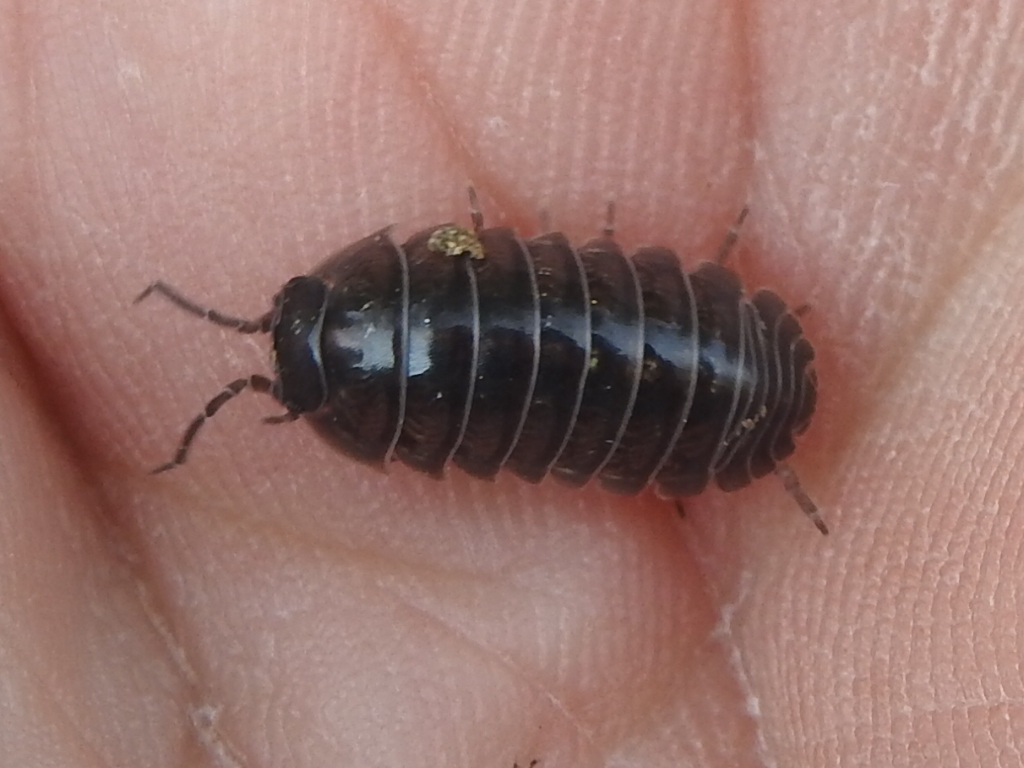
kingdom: Animalia
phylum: Arthropoda
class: Malacostraca
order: Isopoda
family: Armadillidiidae
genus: Armadillidium
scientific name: Armadillidium vulgare
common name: Common pill woodlouse
